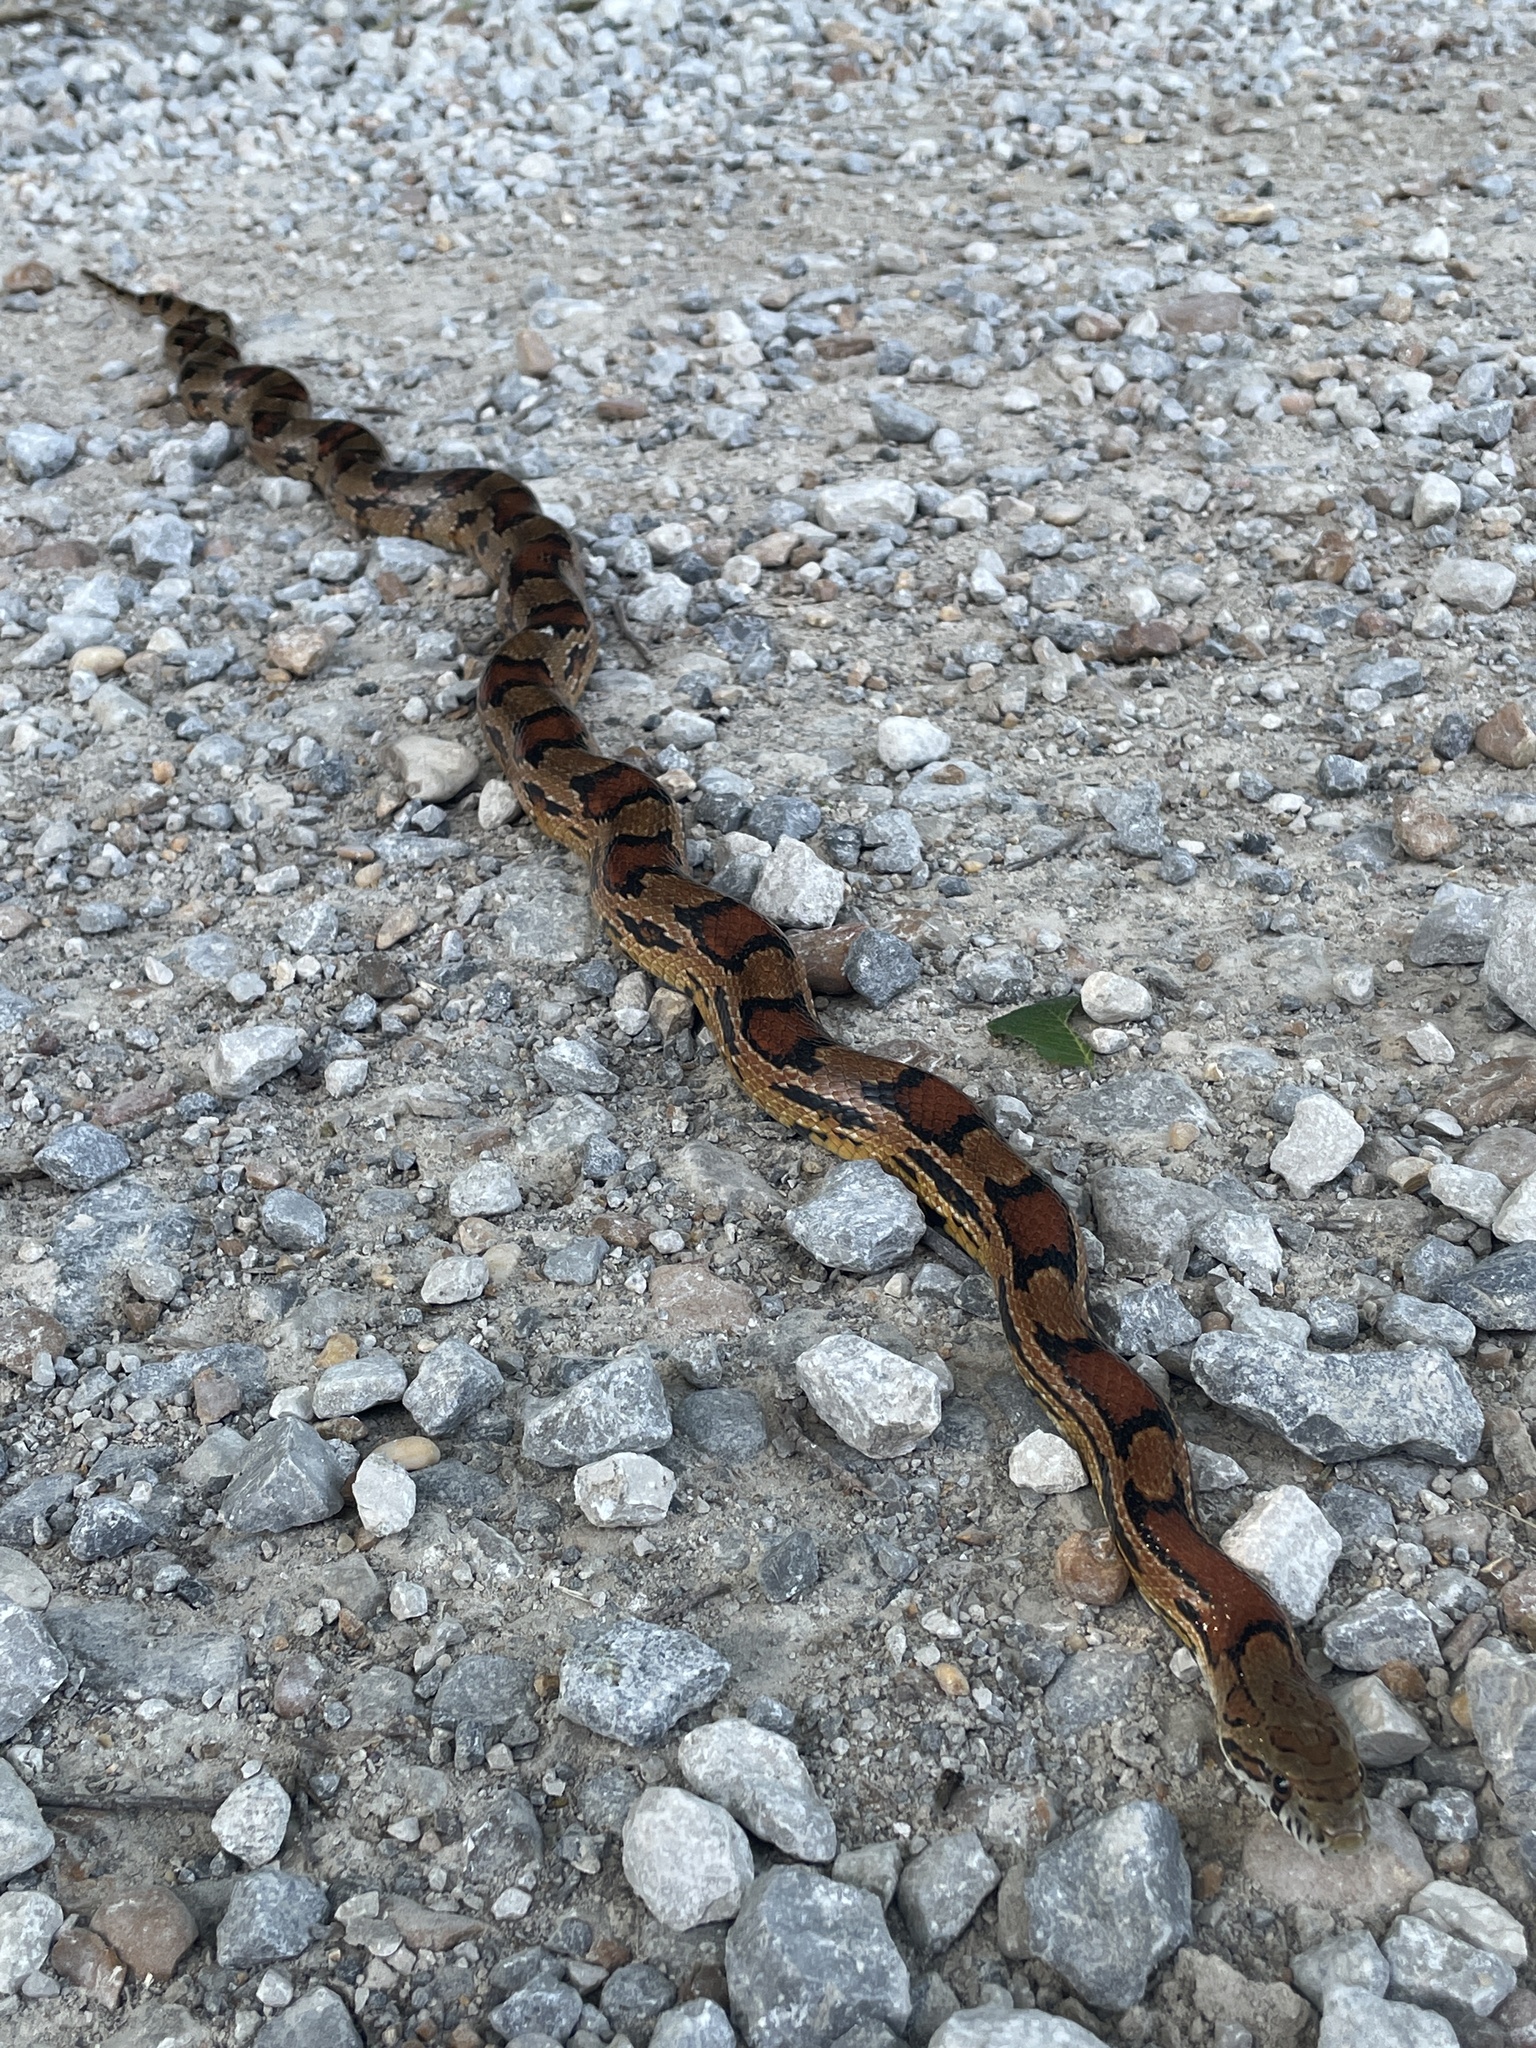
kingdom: Animalia
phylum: Chordata
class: Squamata
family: Colubridae
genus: Pantherophis
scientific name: Pantherophis guttatus
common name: Red cornsnake
